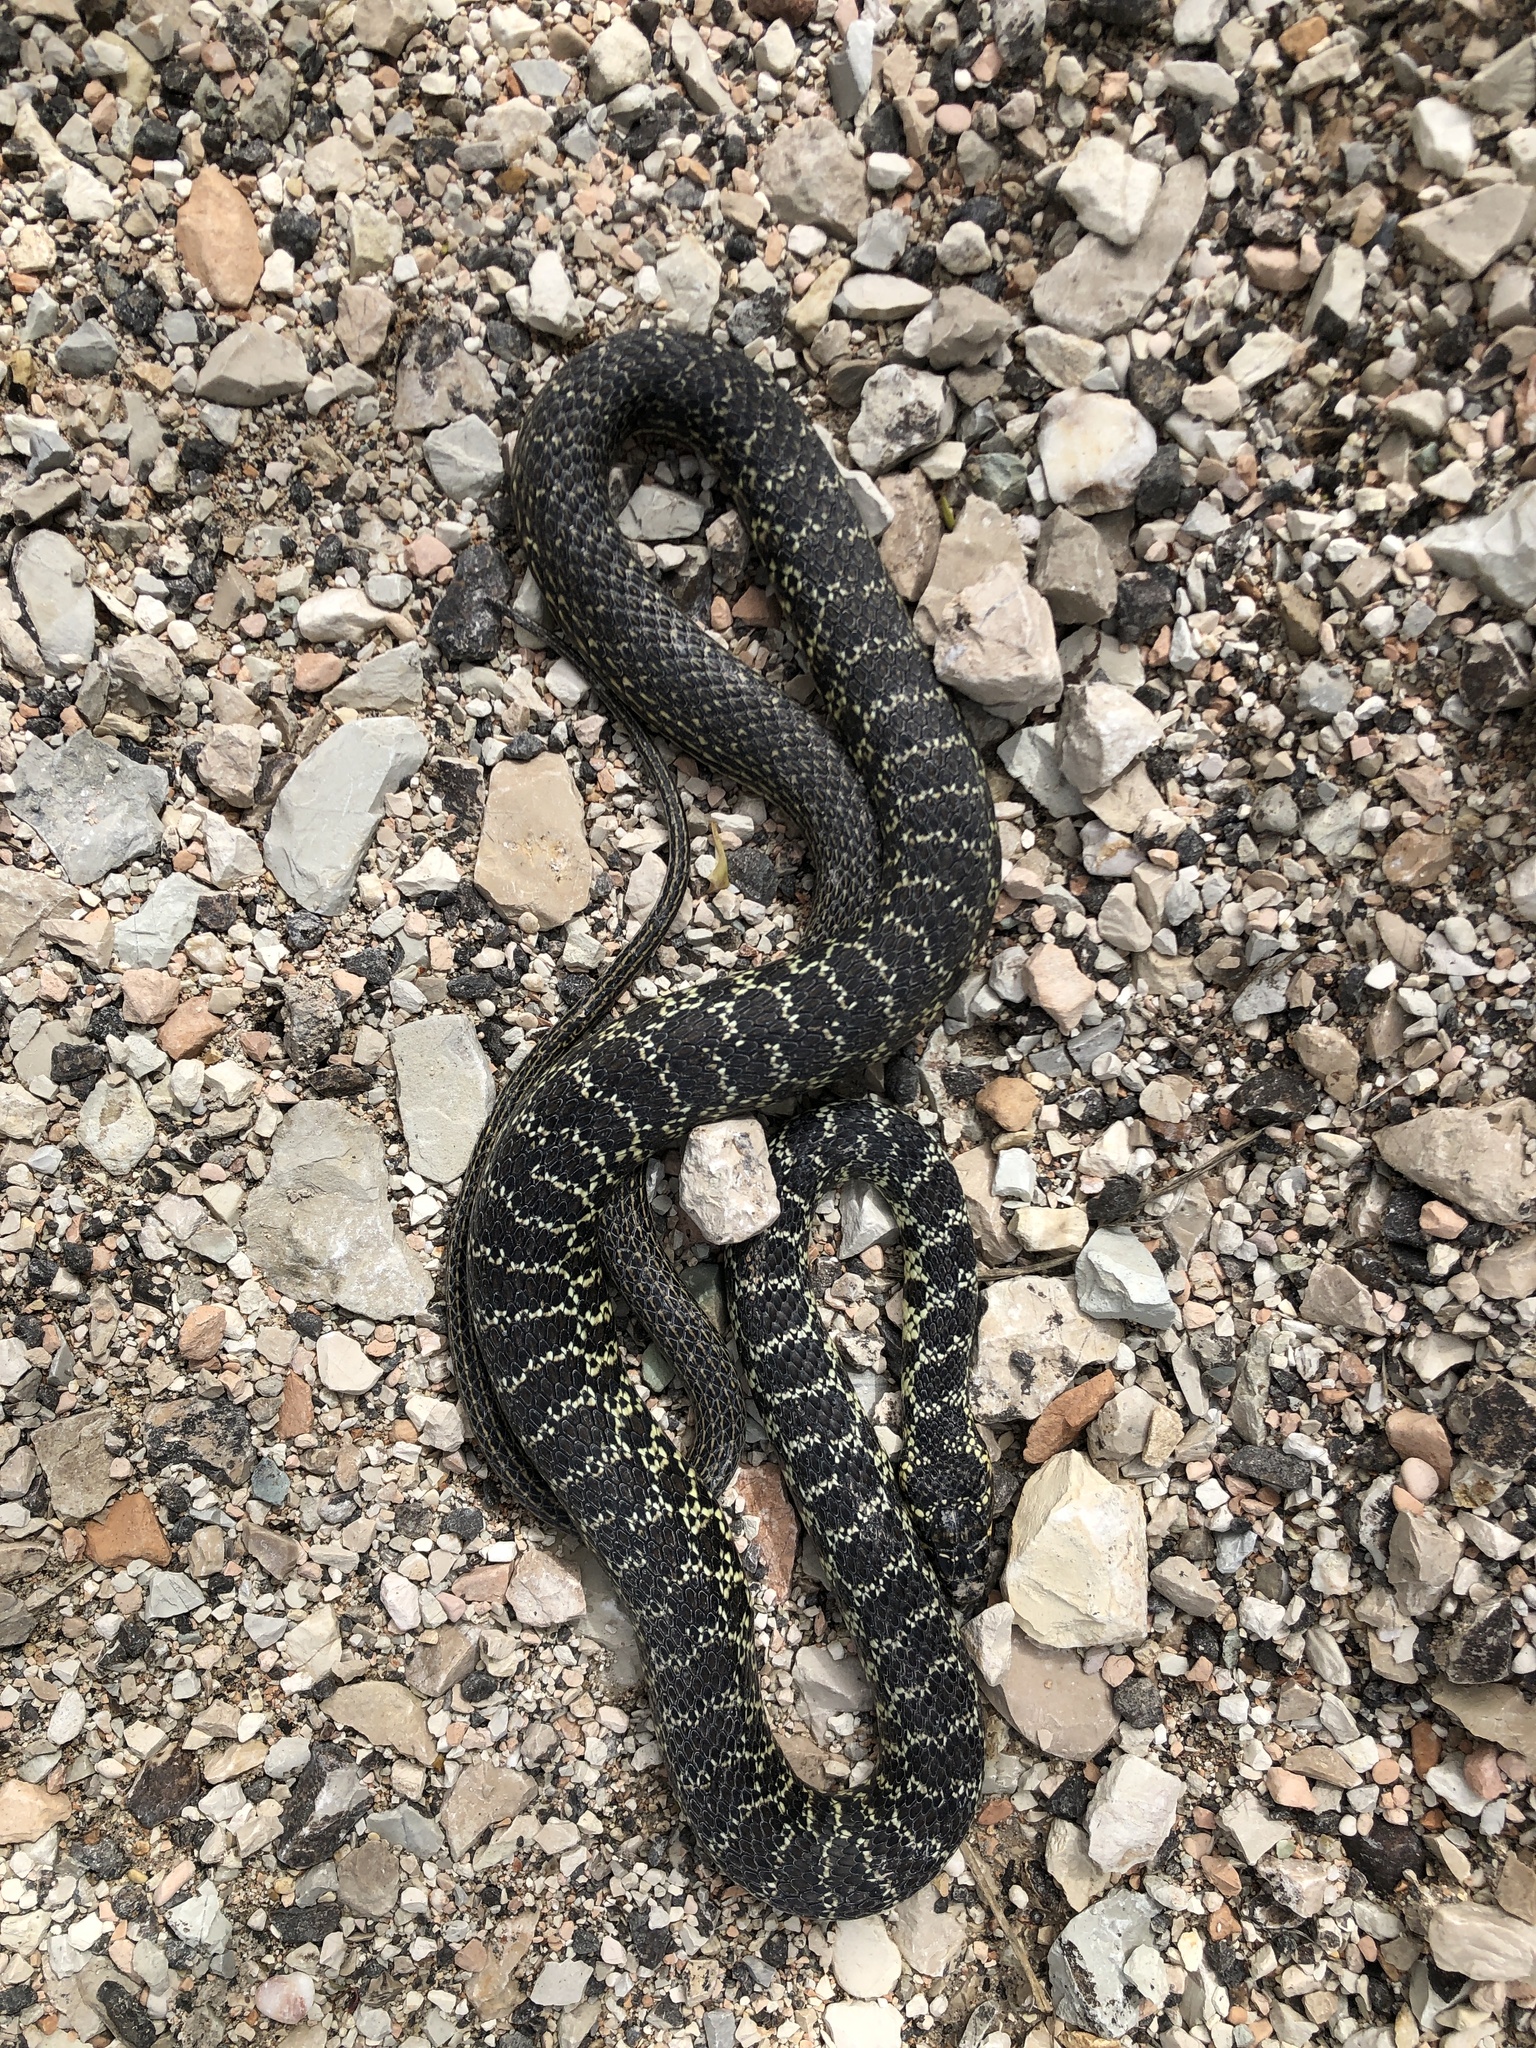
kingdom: Animalia
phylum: Chordata
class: Squamata
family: Colubridae
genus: Hierophis
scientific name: Hierophis viridiflavus
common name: Green whip snake
